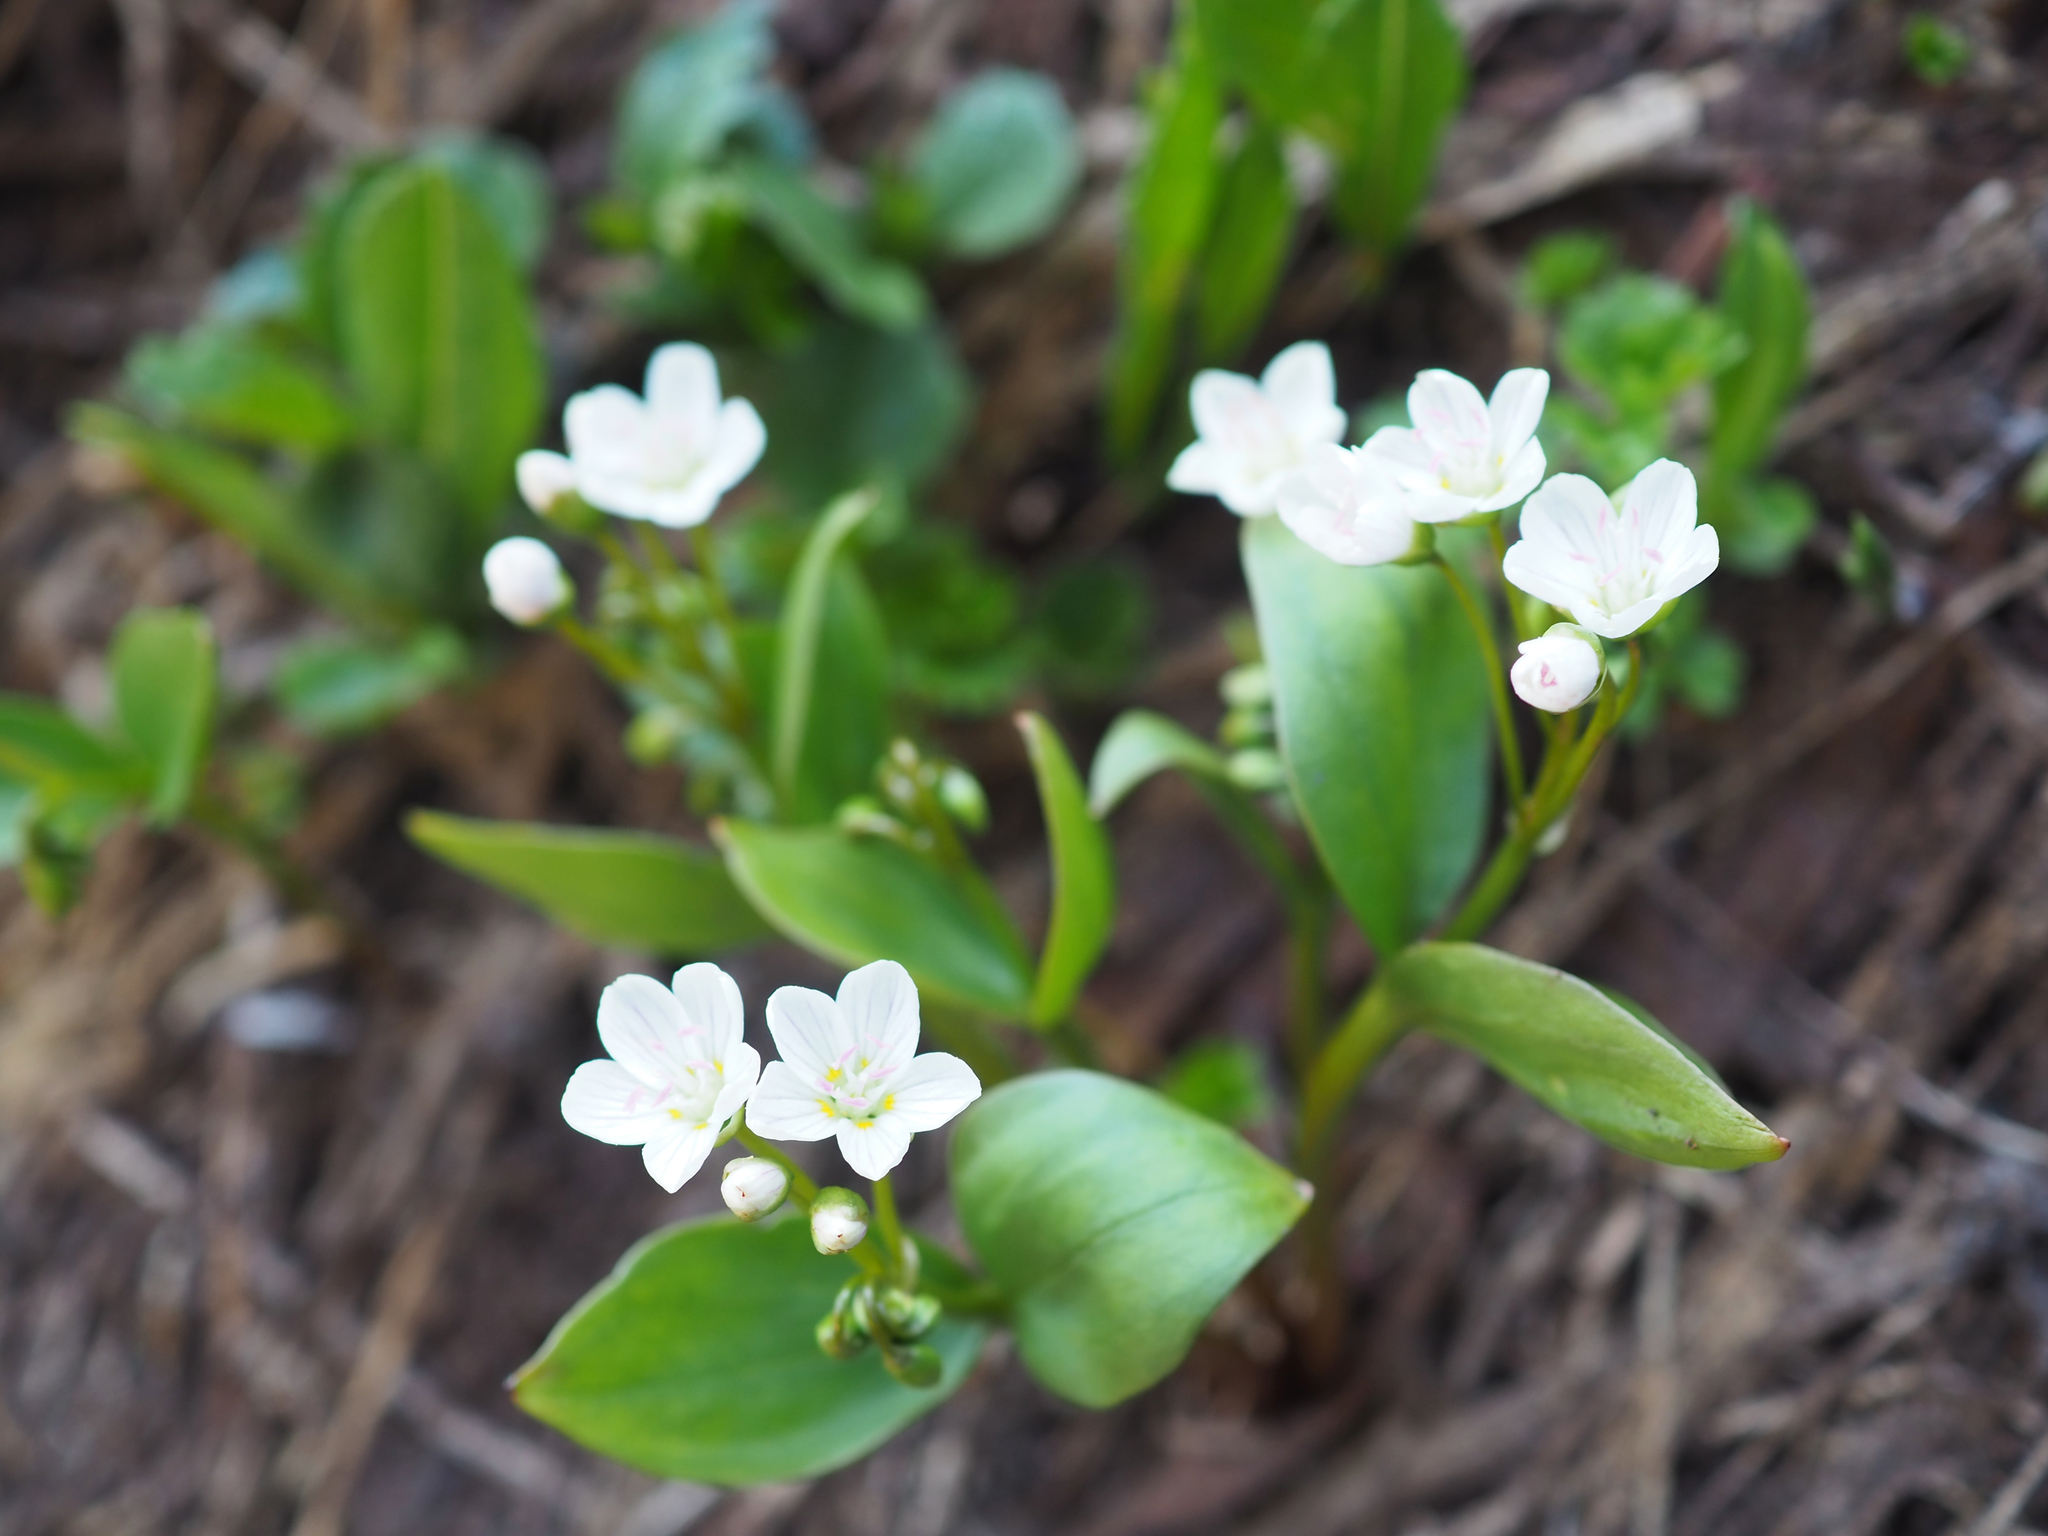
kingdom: Plantae
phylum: Tracheophyta
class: Magnoliopsida
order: Caryophyllales
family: Montiaceae
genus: Claytonia
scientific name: Claytonia lanceolata
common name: Western spring-beauty
